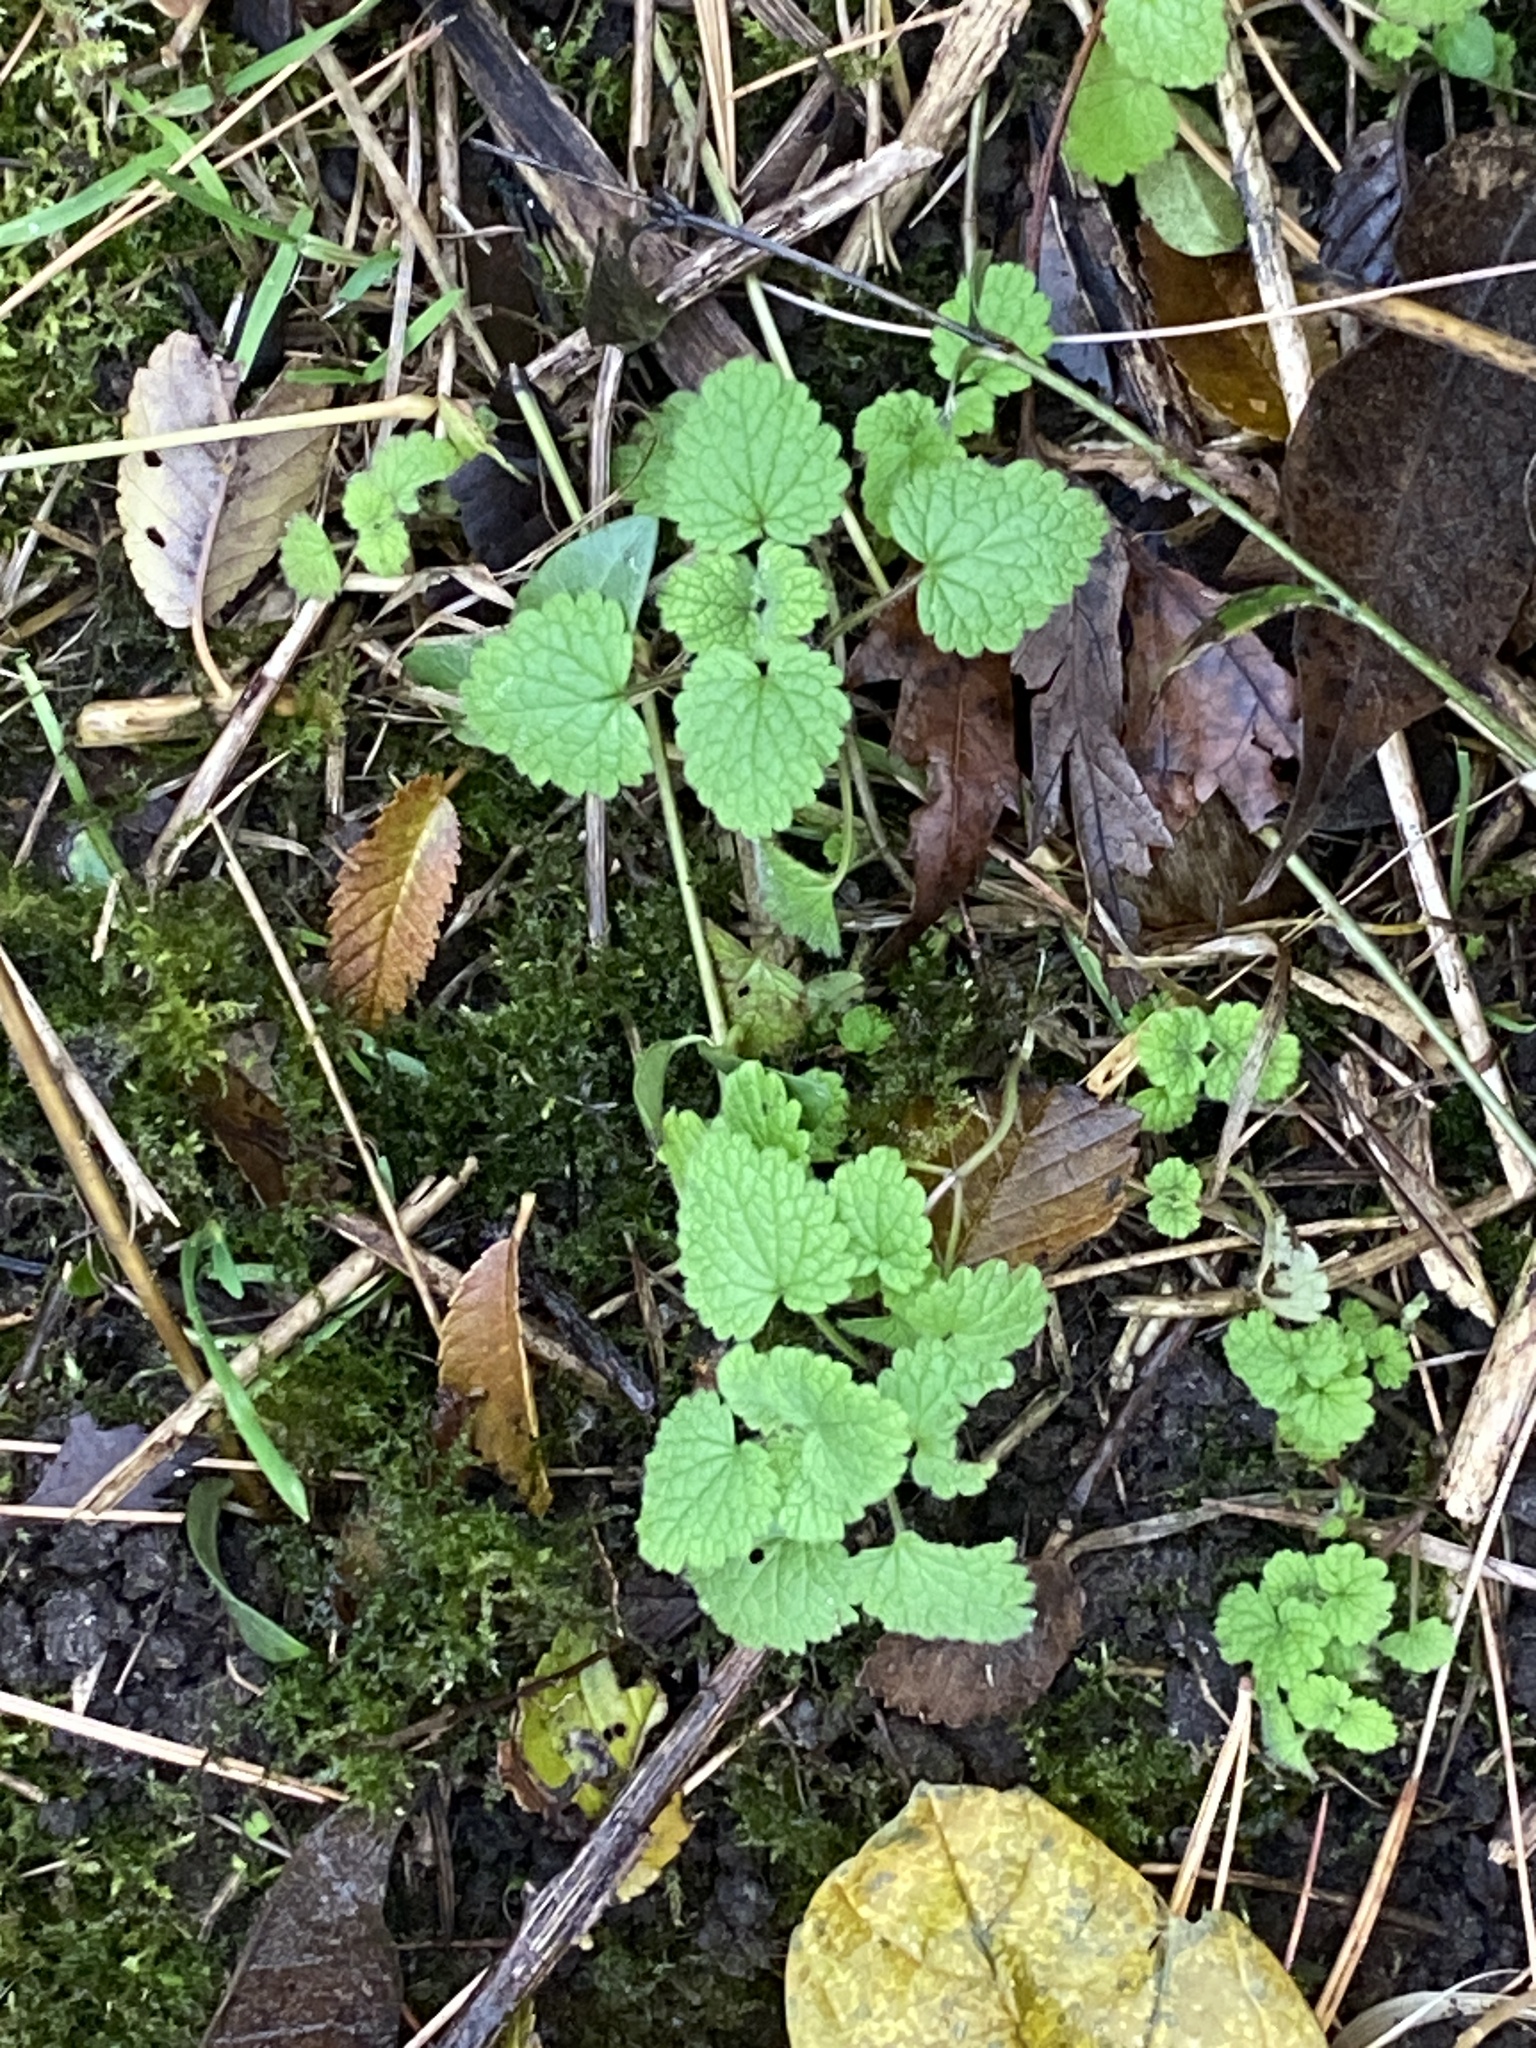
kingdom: Plantae
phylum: Tracheophyta
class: Magnoliopsida
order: Lamiales
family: Lamiaceae
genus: Lamium
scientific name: Lamium purpureum
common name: Red dead-nettle
